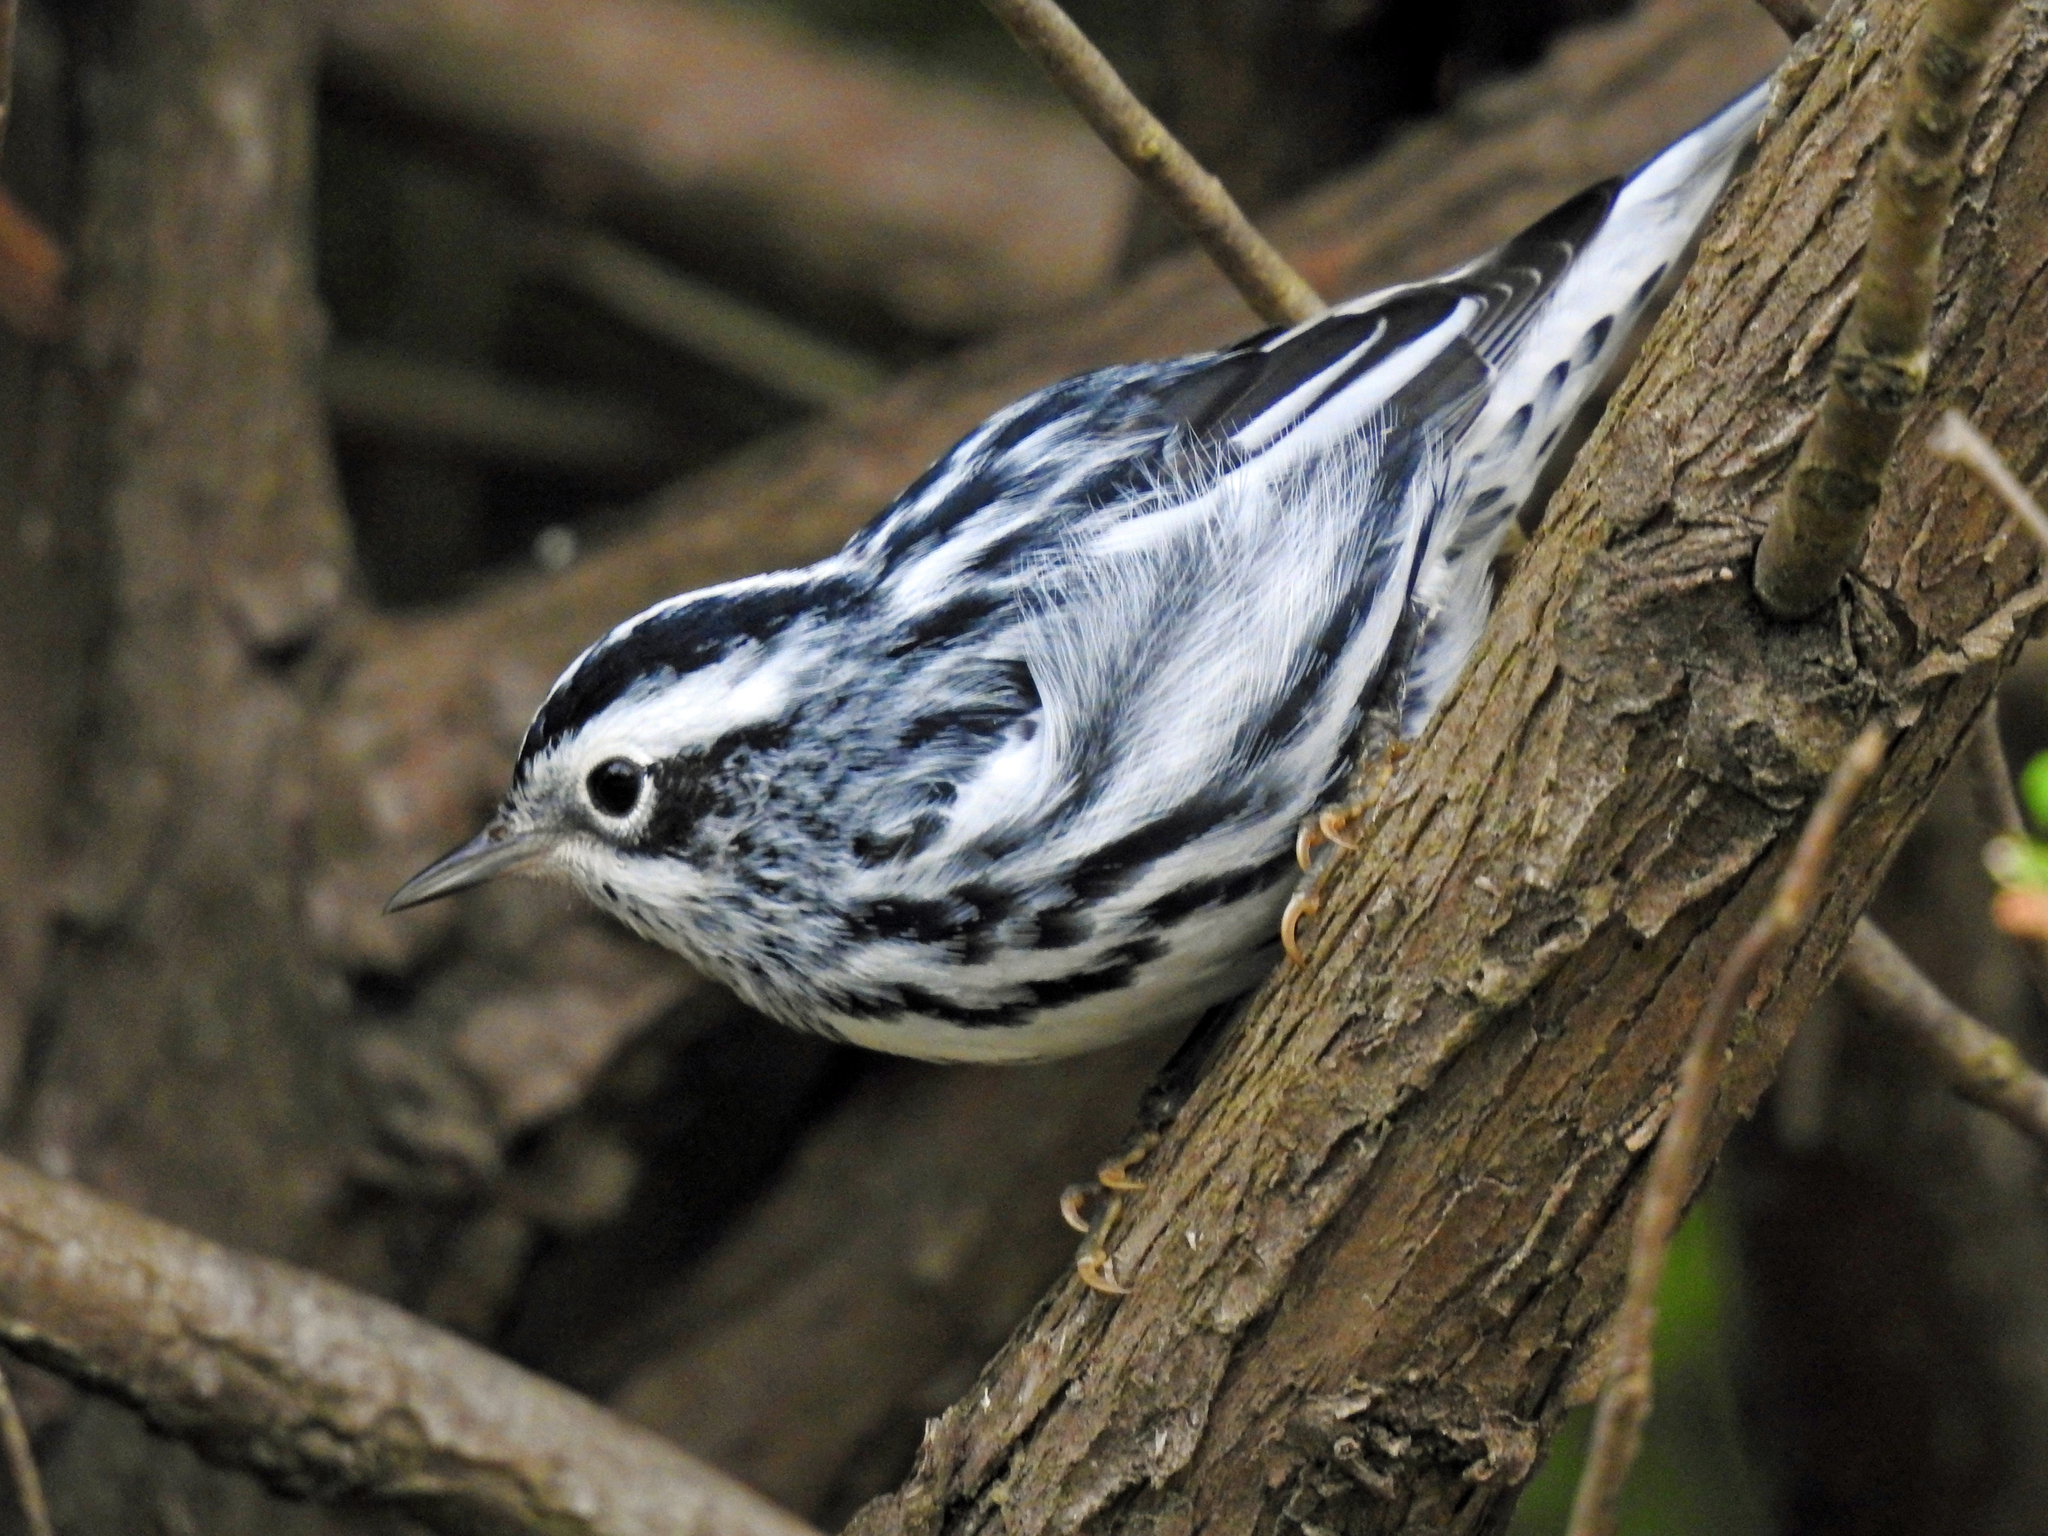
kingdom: Animalia
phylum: Chordata
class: Aves
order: Passeriformes
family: Parulidae
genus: Mniotilta
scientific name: Mniotilta varia
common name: Black-and-white warbler
